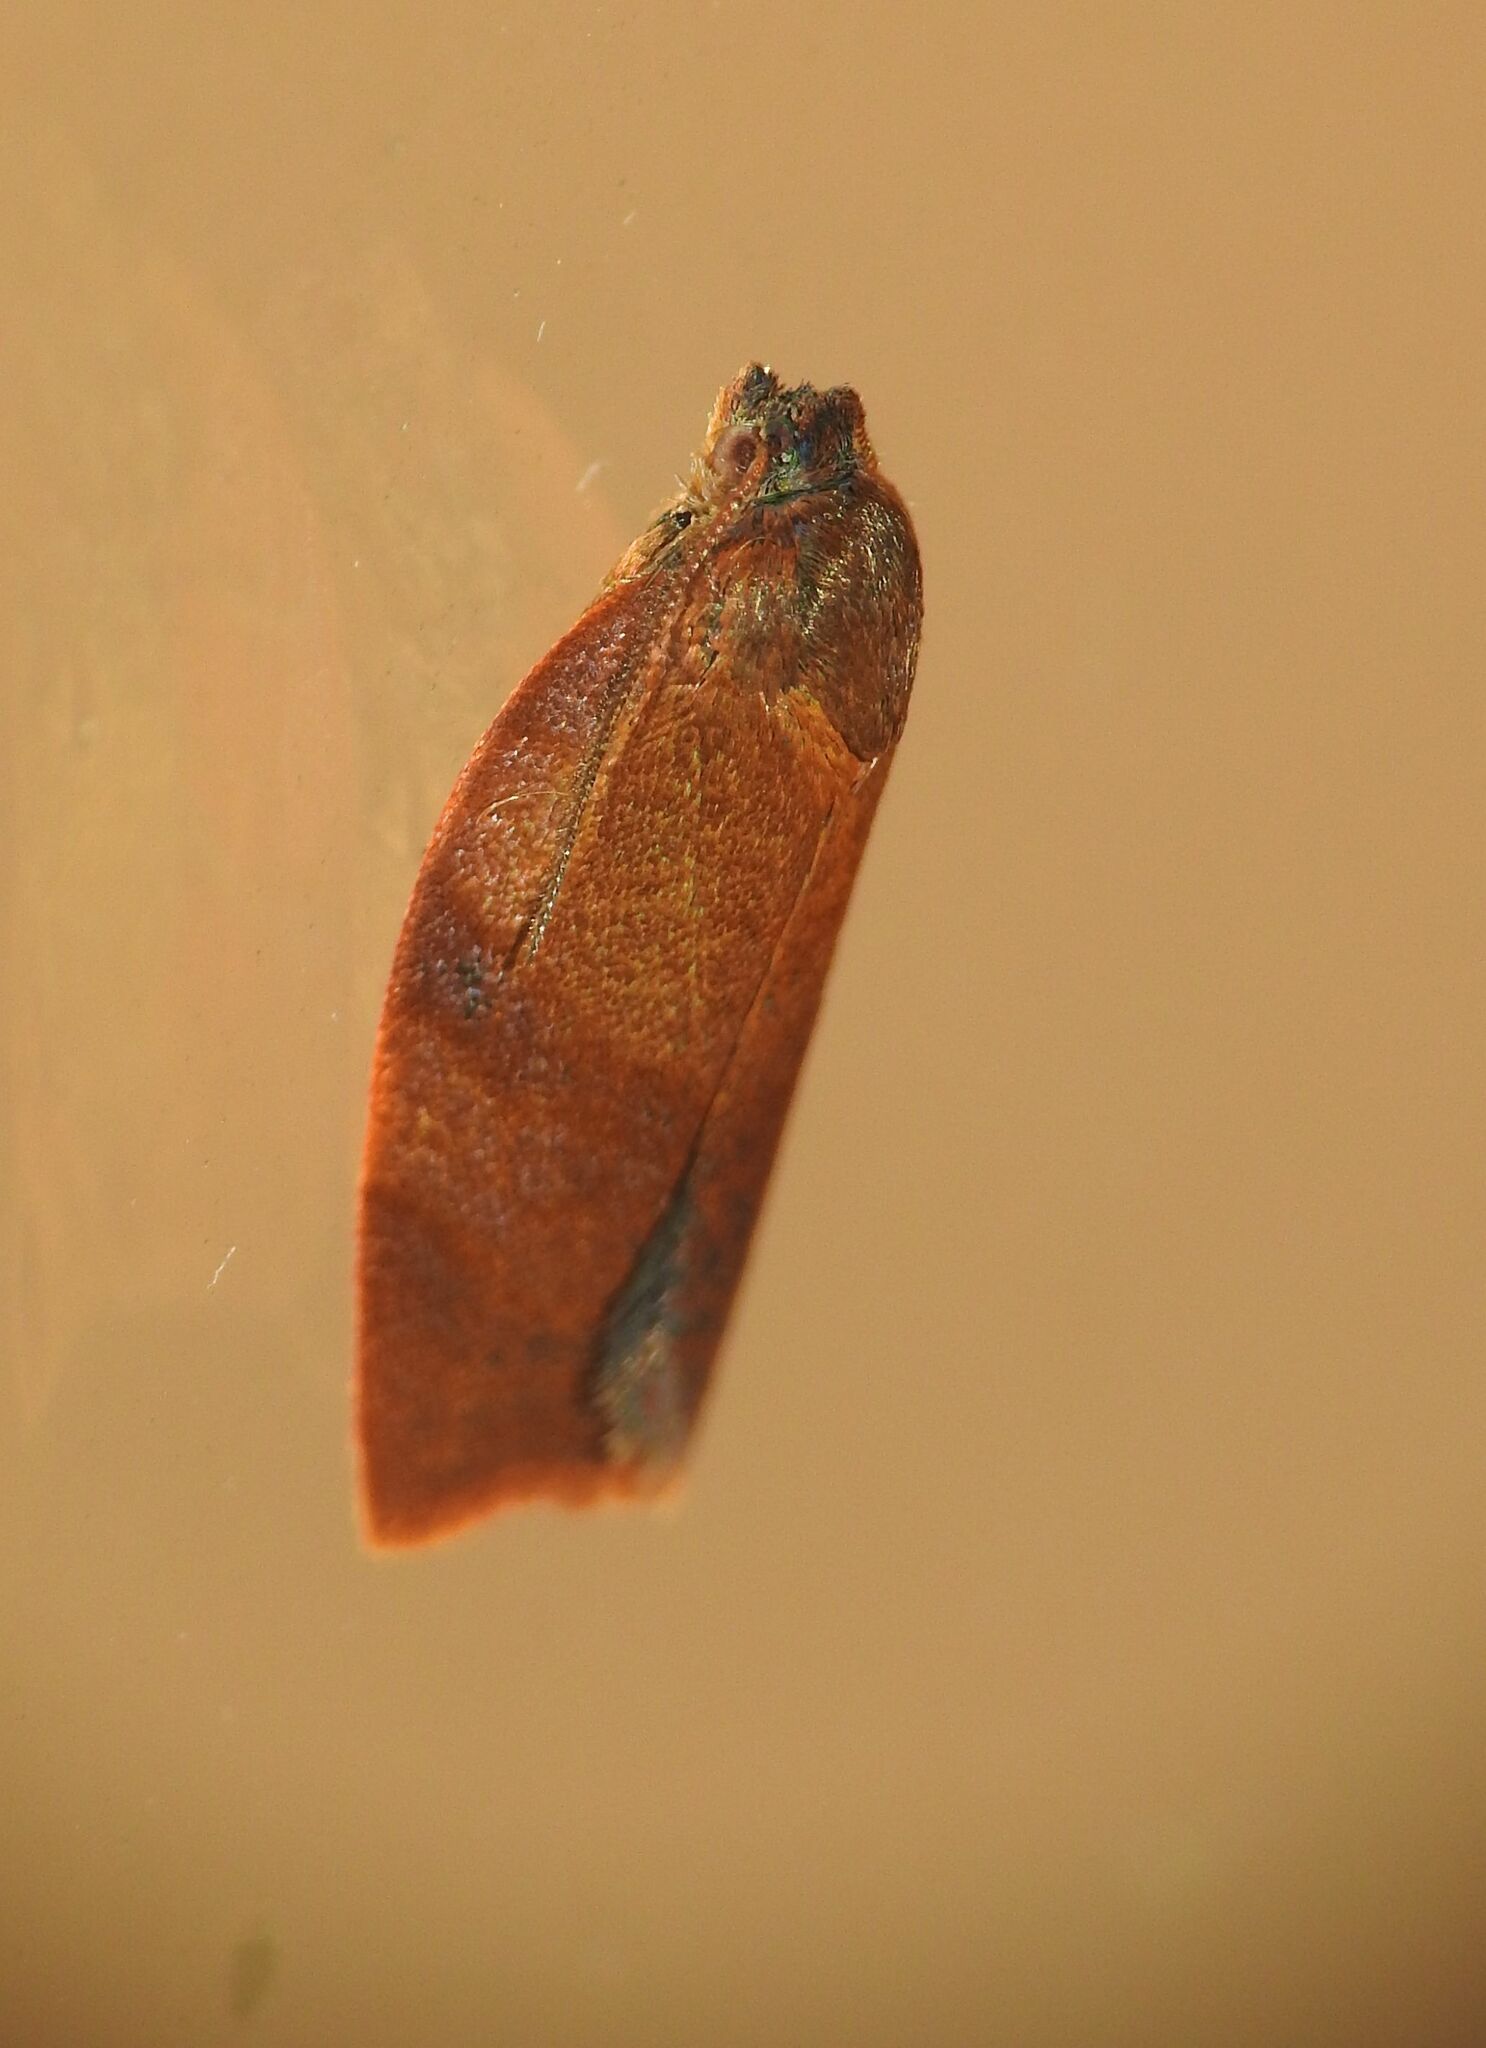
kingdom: Animalia
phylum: Arthropoda
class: Insecta
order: Lepidoptera
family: Tortricidae
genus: Cacoecimorpha
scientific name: Cacoecimorpha pronubana
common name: Carnation tortrix
